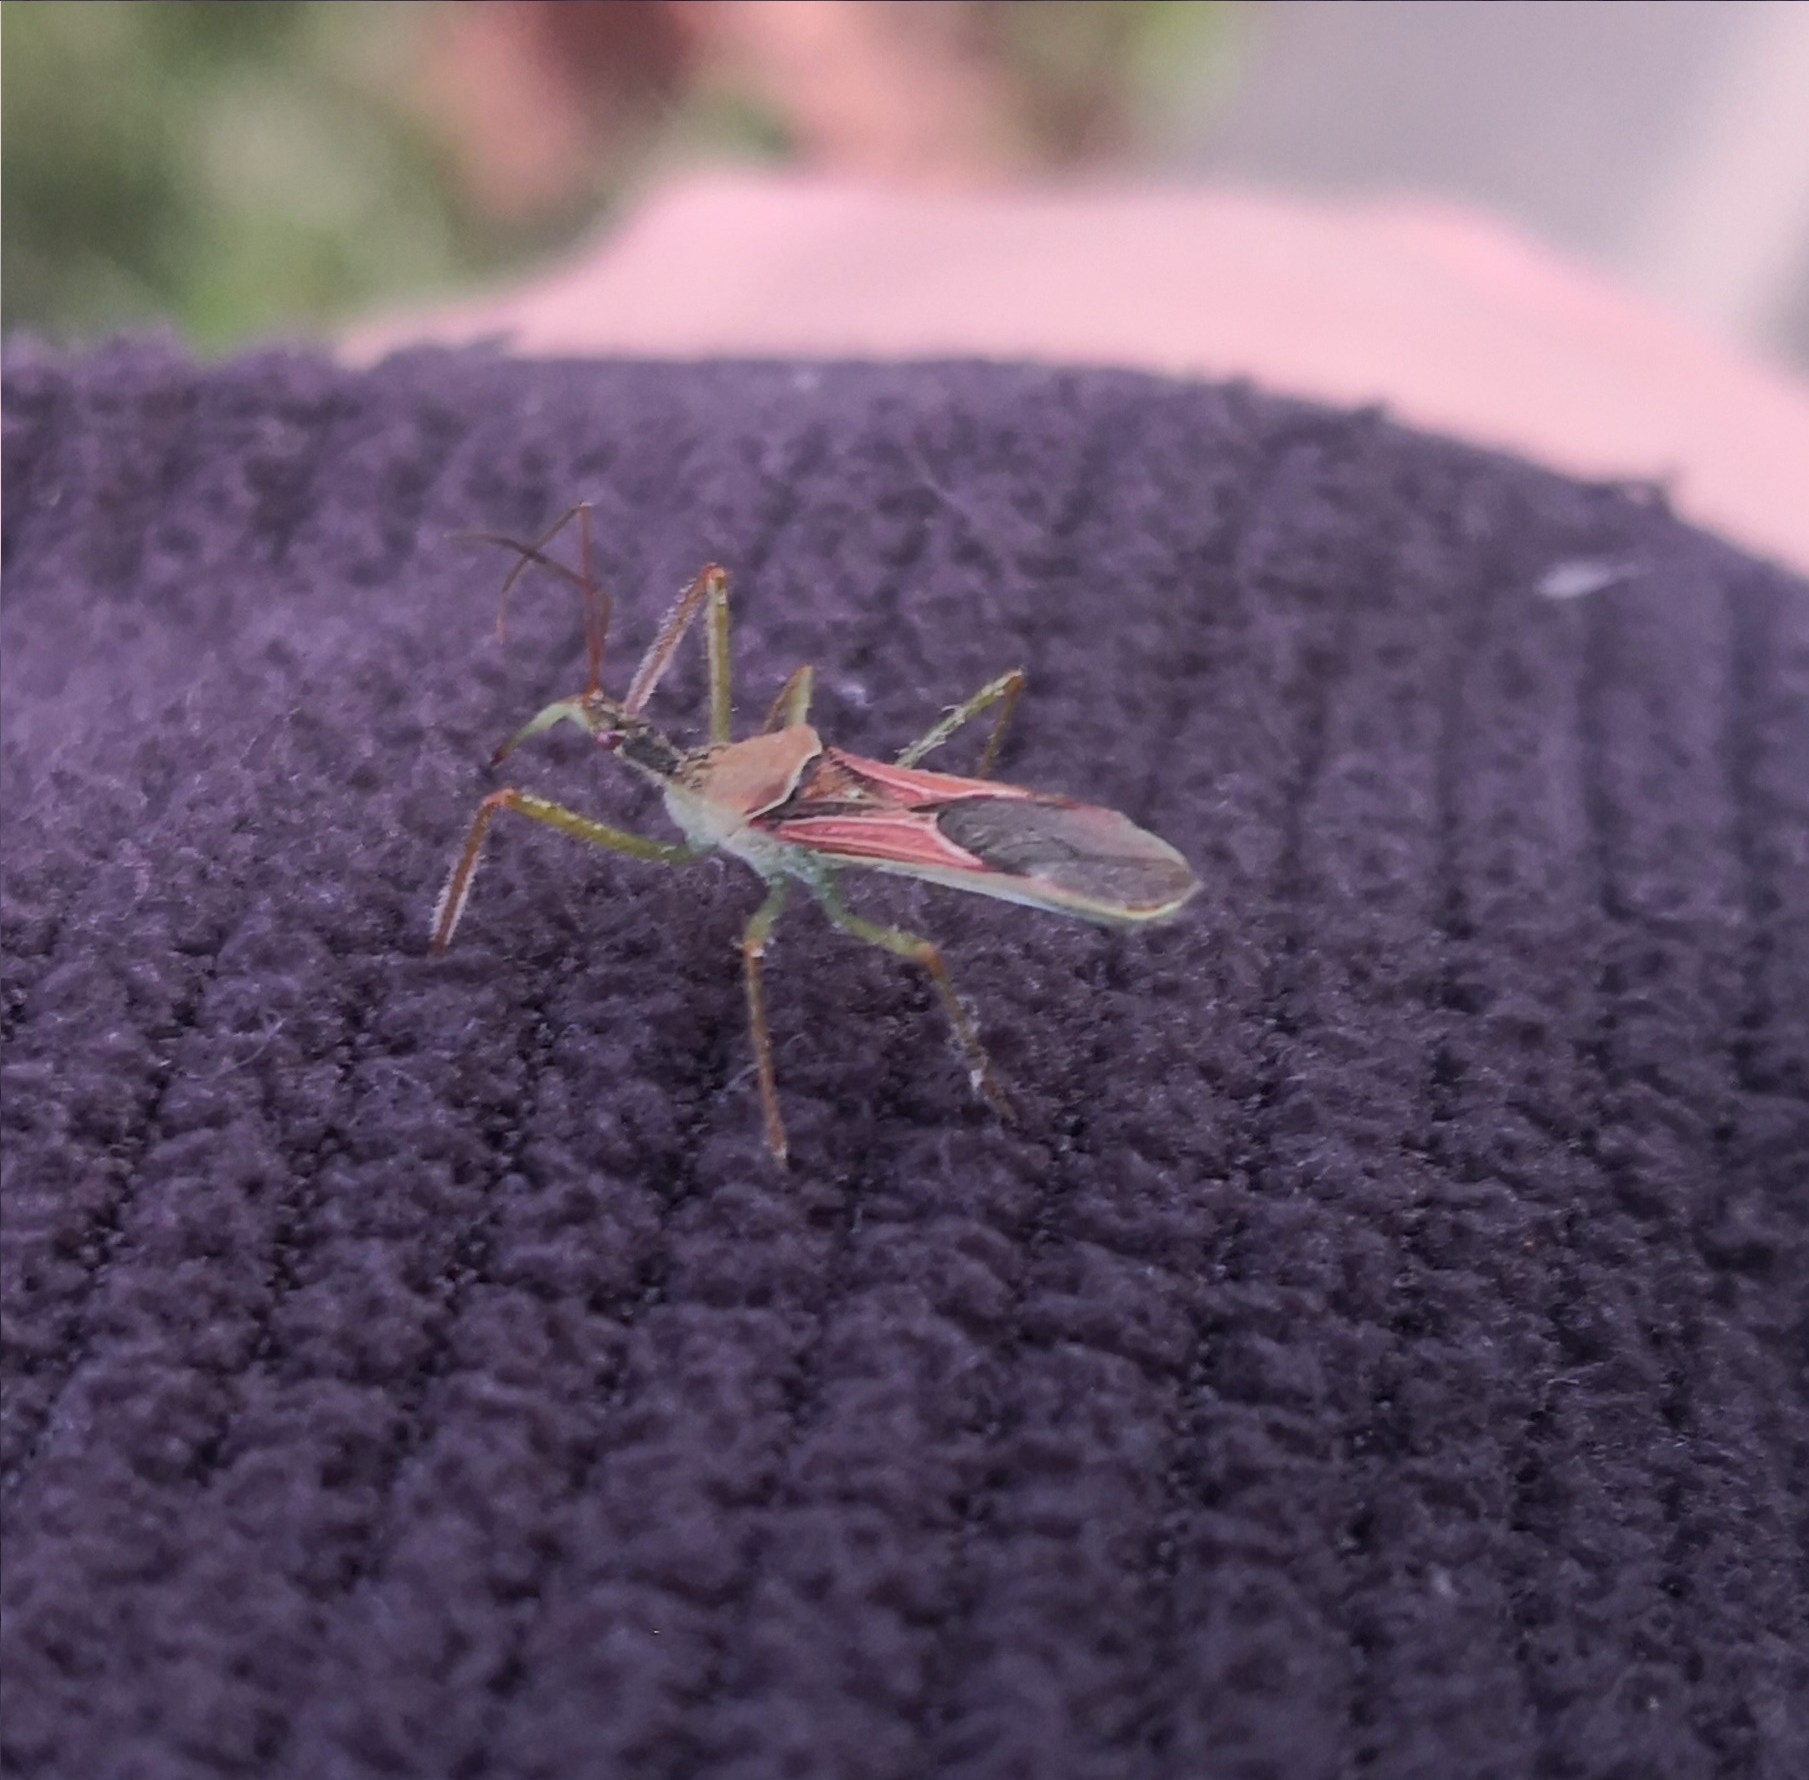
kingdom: Animalia
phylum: Arthropoda
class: Insecta
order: Hemiptera
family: Reduviidae
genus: Zelus
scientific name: Zelus renardii
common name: Assassin bug
